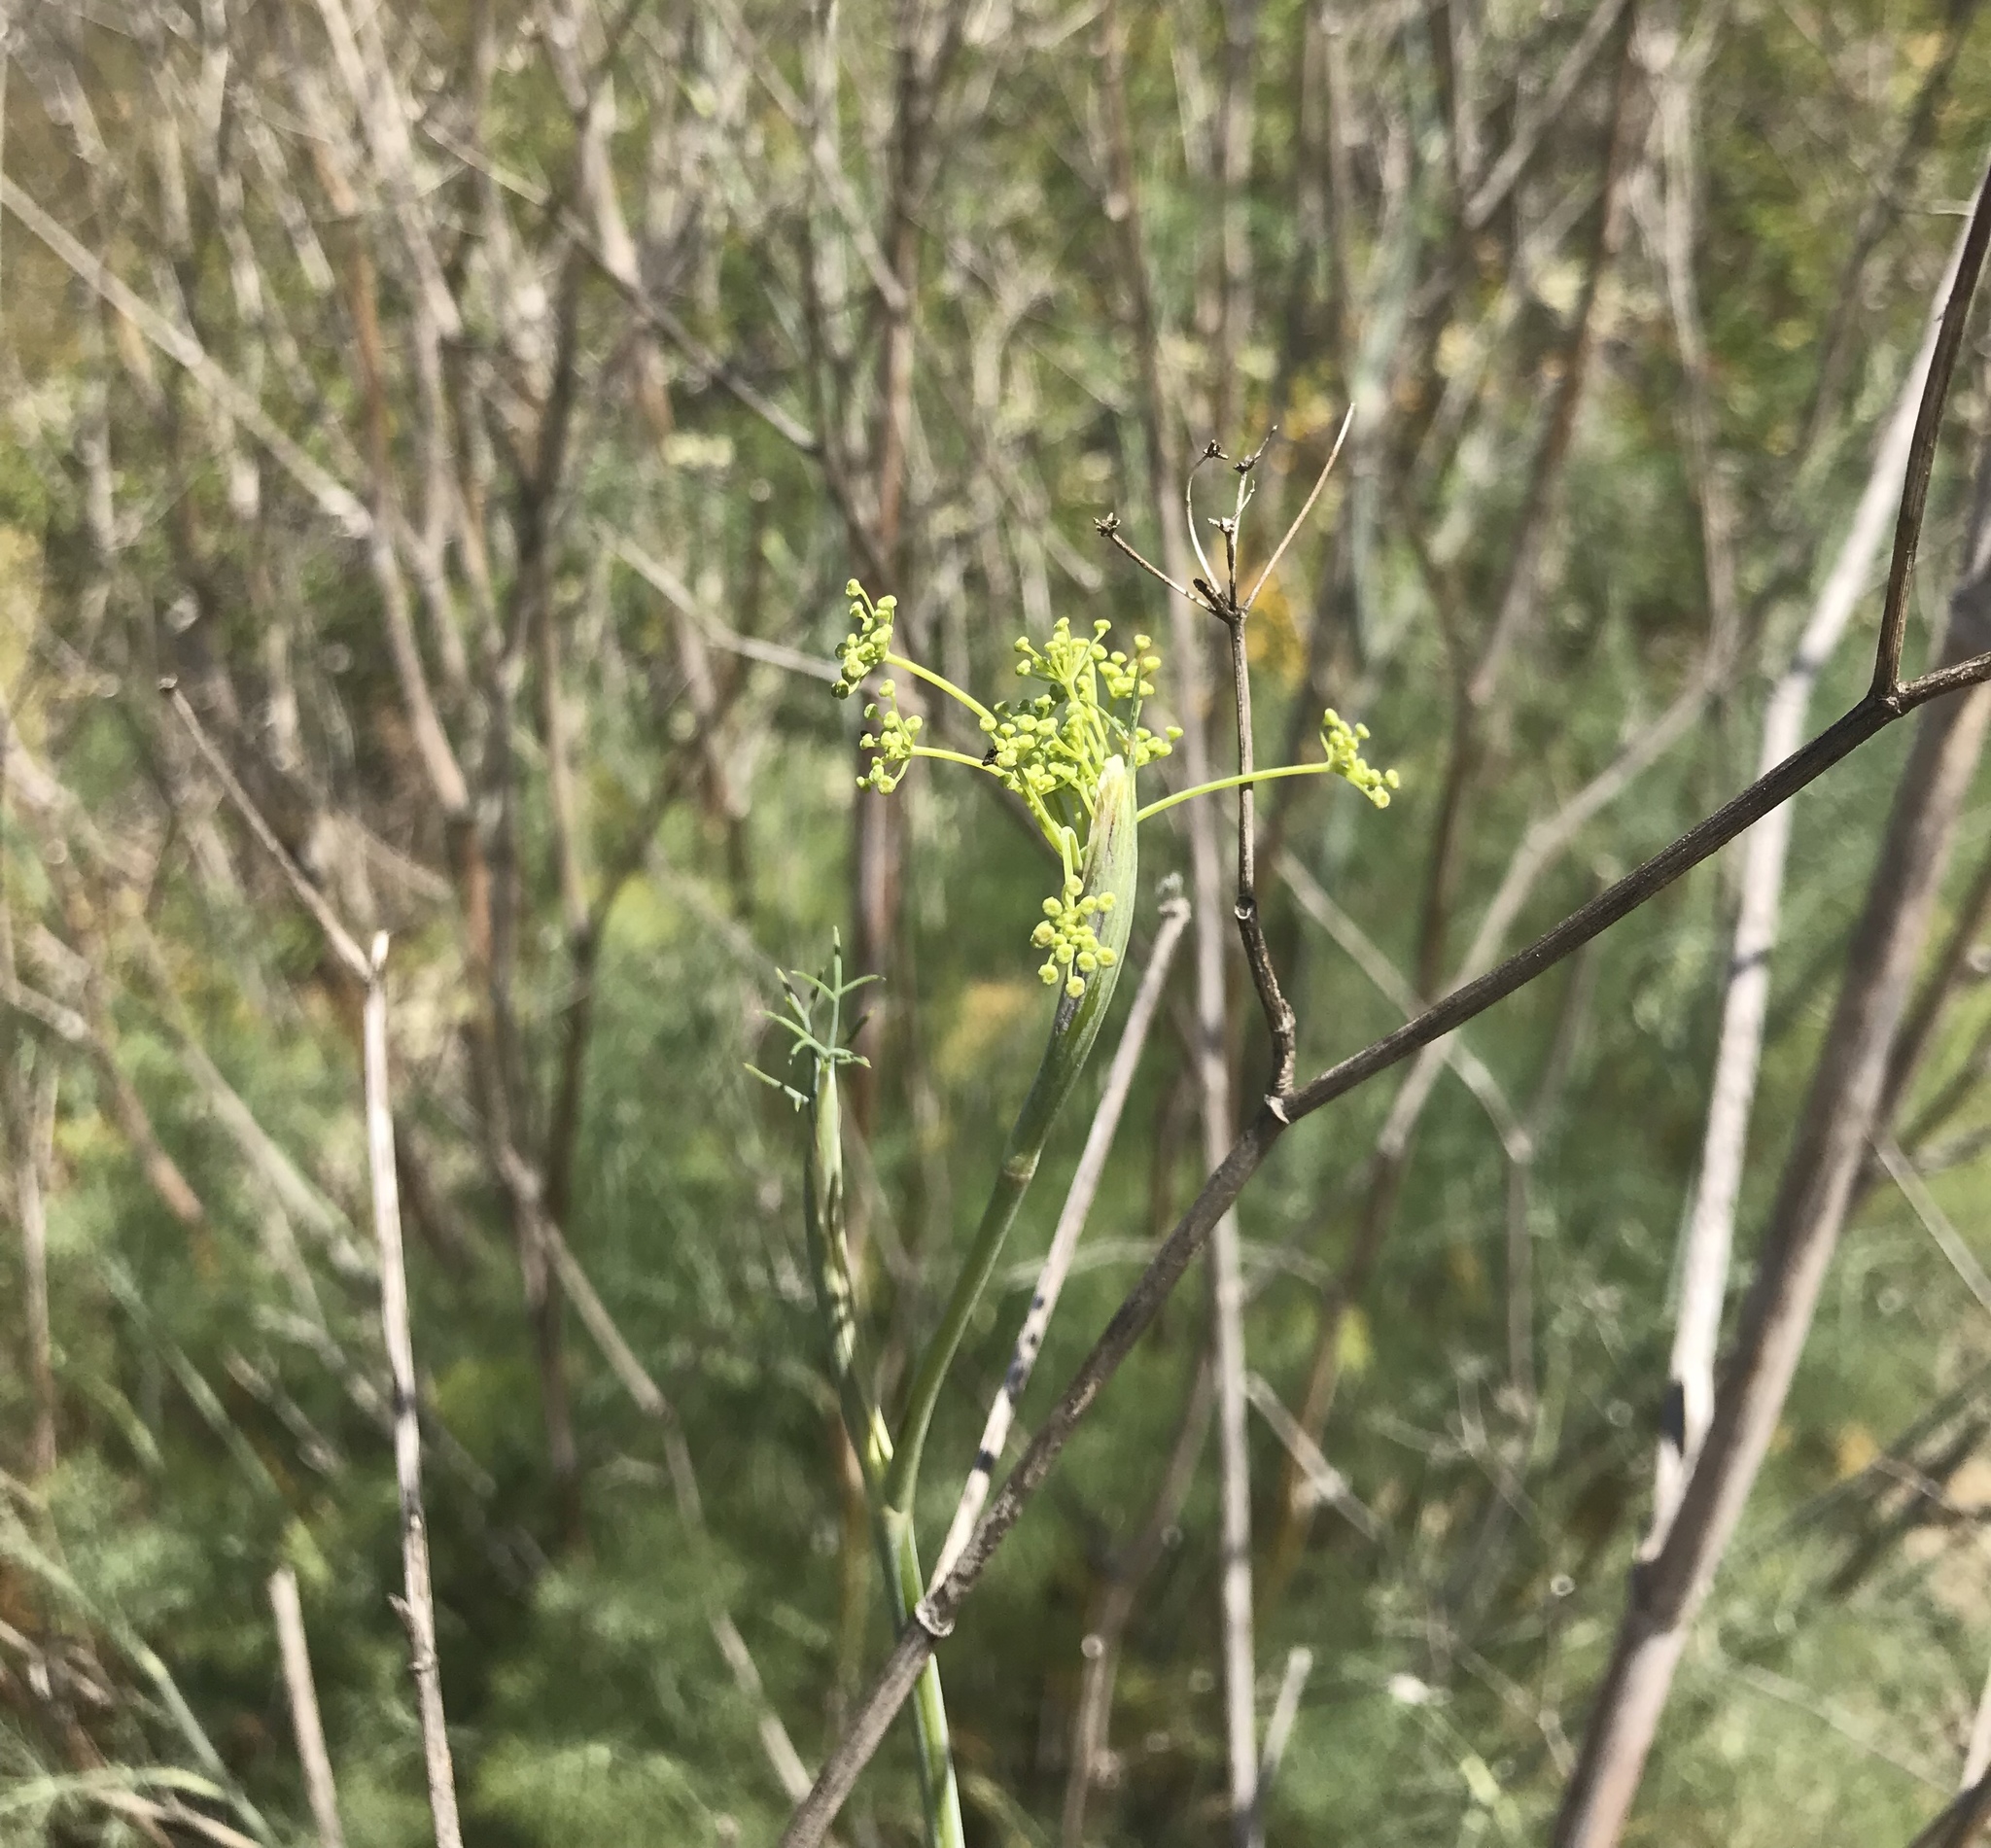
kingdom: Plantae
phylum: Tracheophyta
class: Magnoliopsida
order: Apiales
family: Apiaceae
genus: Foeniculum
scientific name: Foeniculum vulgare
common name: Fennel
